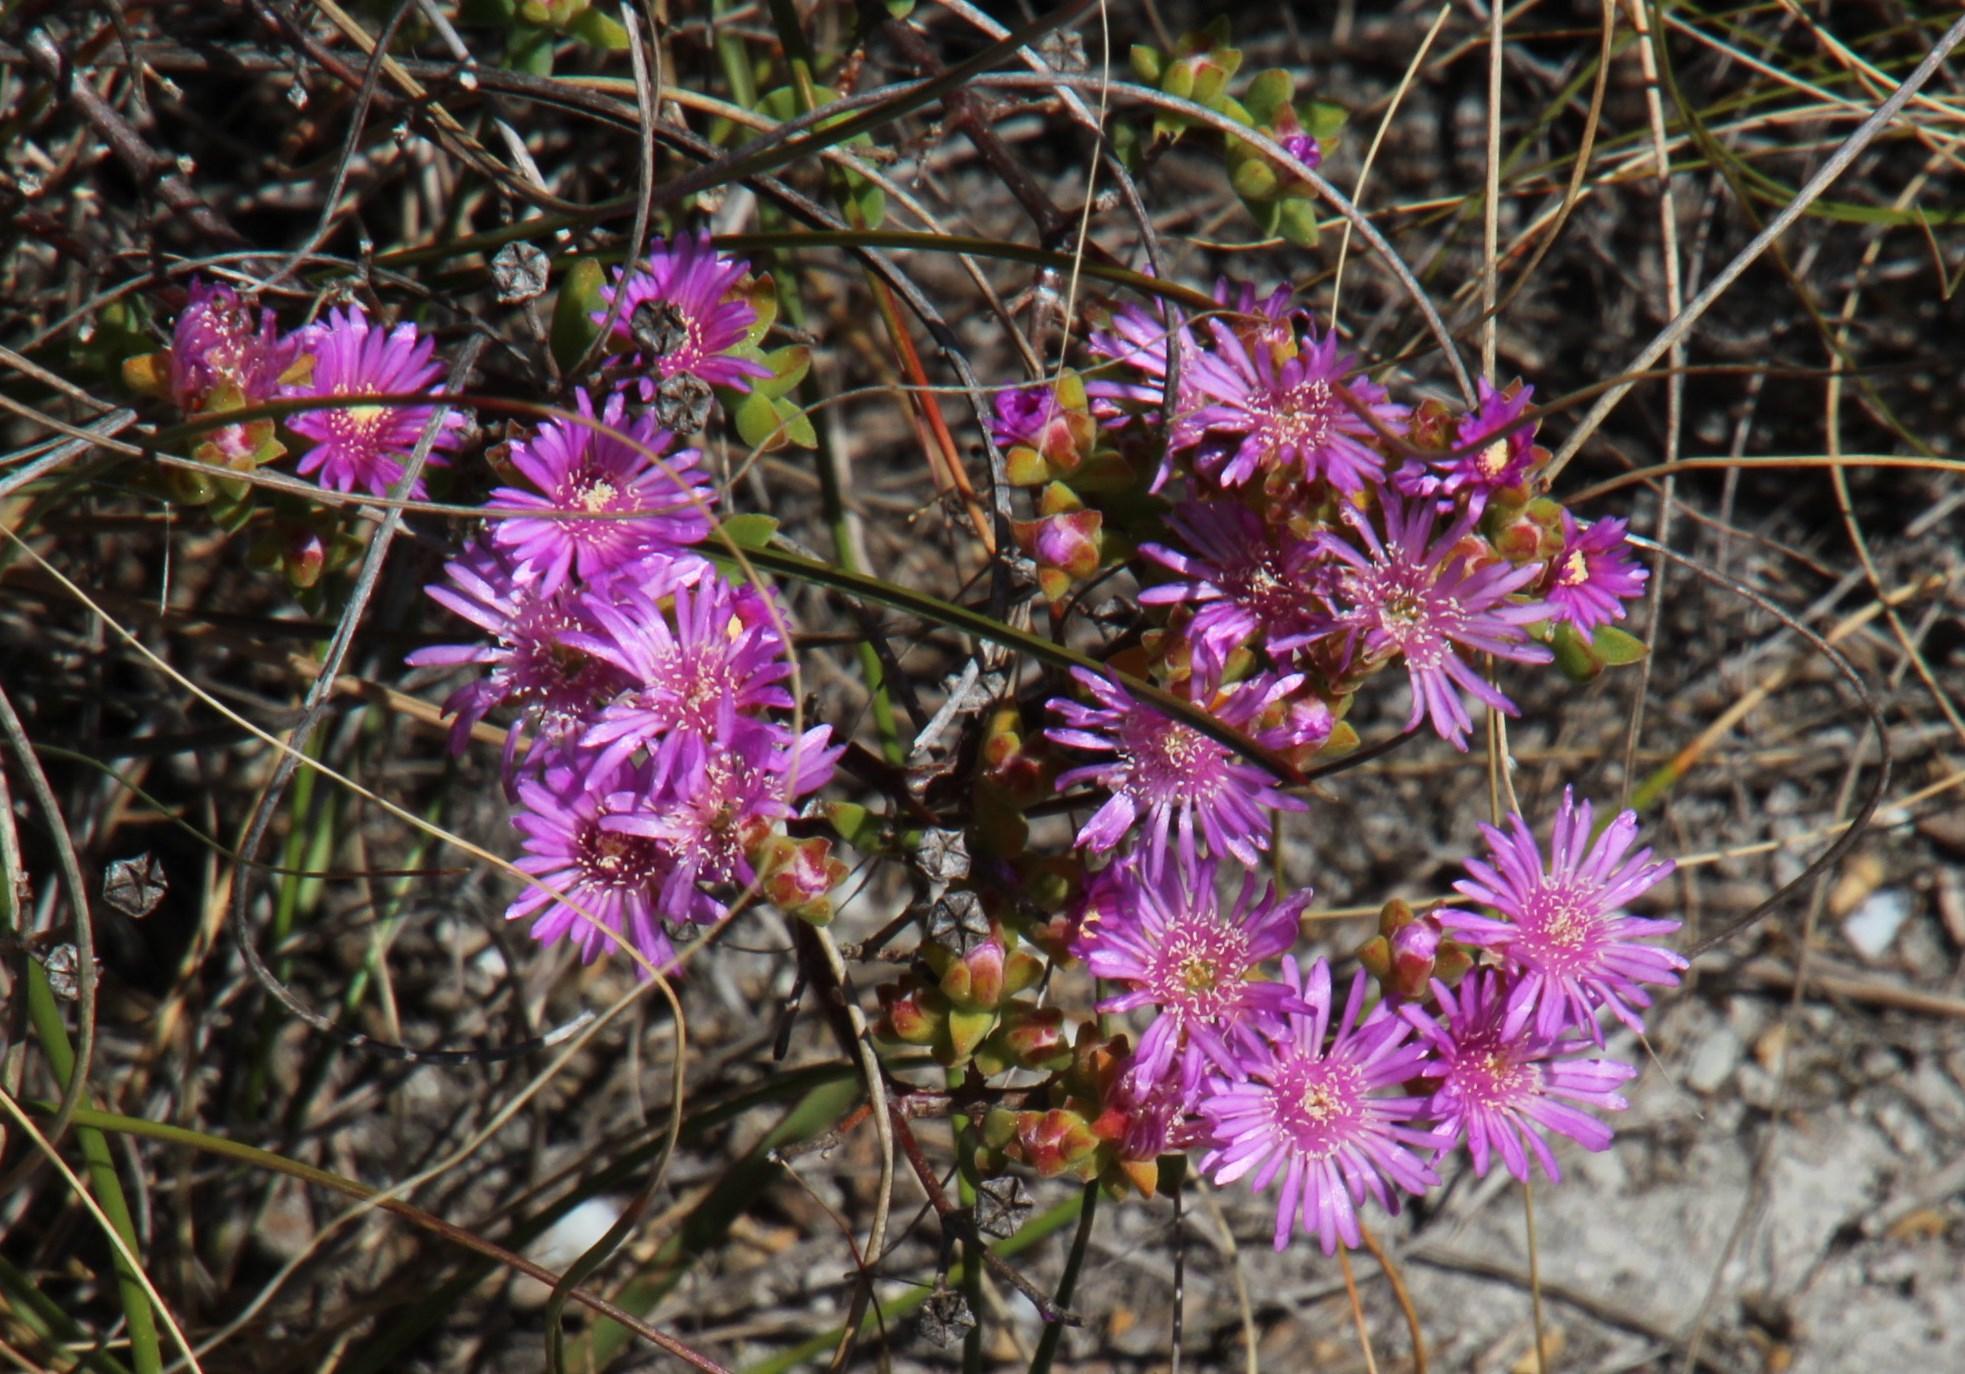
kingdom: Plantae
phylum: Tracheophyta
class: Magnoliopsida
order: Caryophyllales
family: Aizoaceae
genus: Drosanthemum
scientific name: Drosanthemum parvifolium
